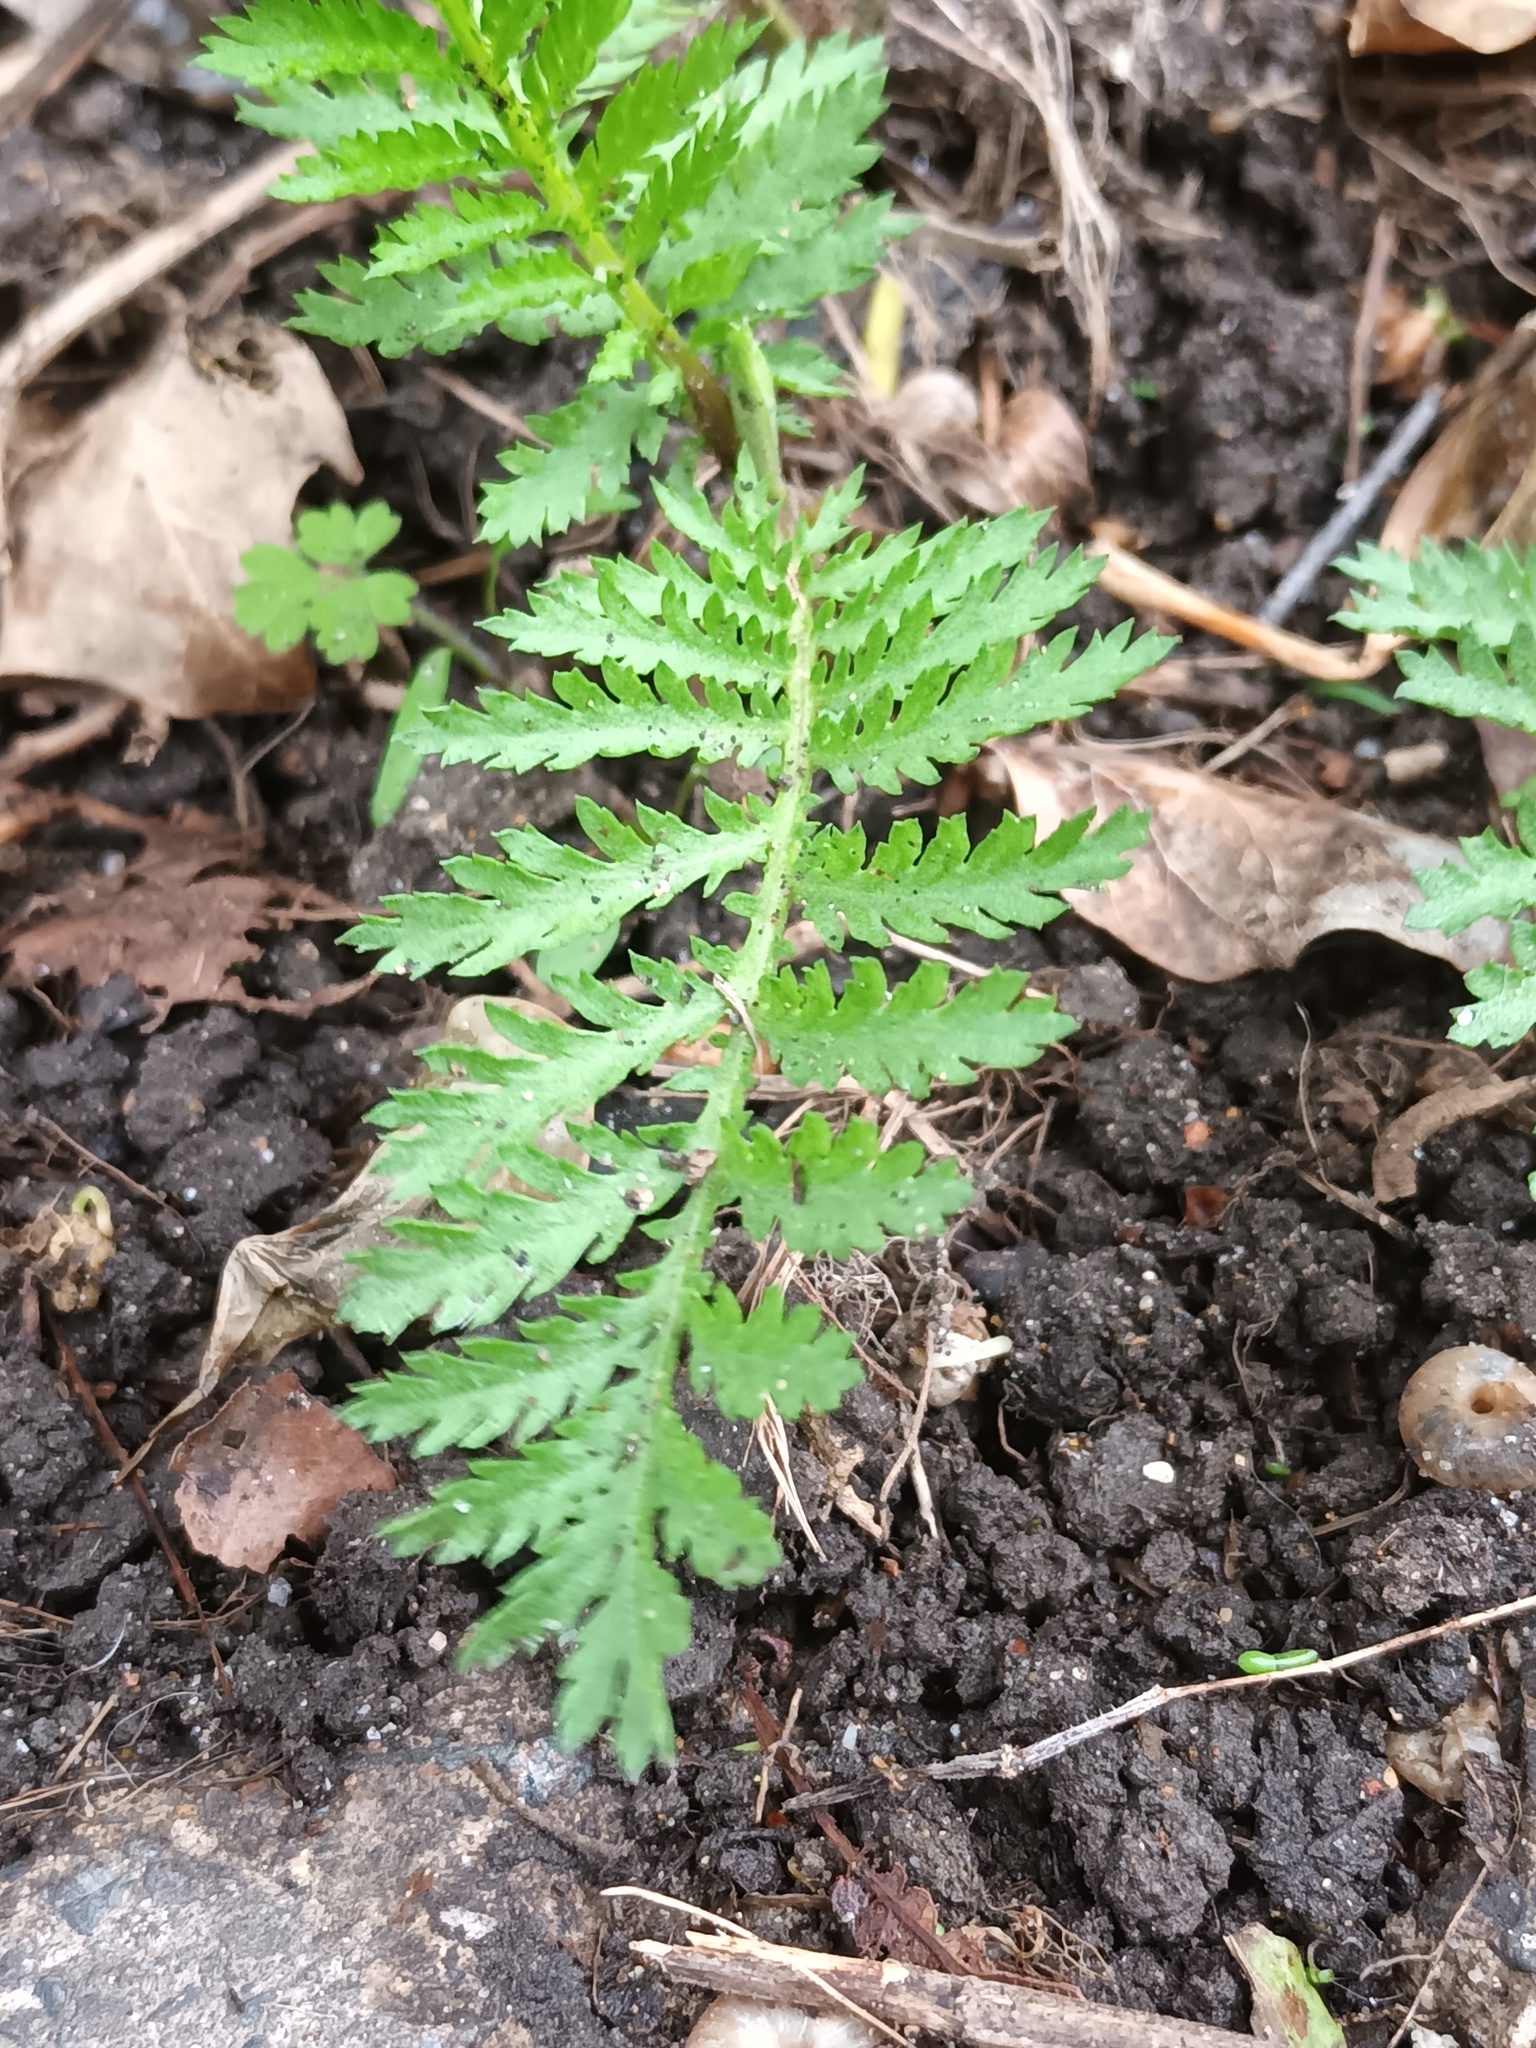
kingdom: Plantae
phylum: Tracheophyta
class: Magnoliopsida
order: Asterales
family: Asteraceae
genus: Tanacetum
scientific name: Tanacetum vulgare
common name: Common tansy
